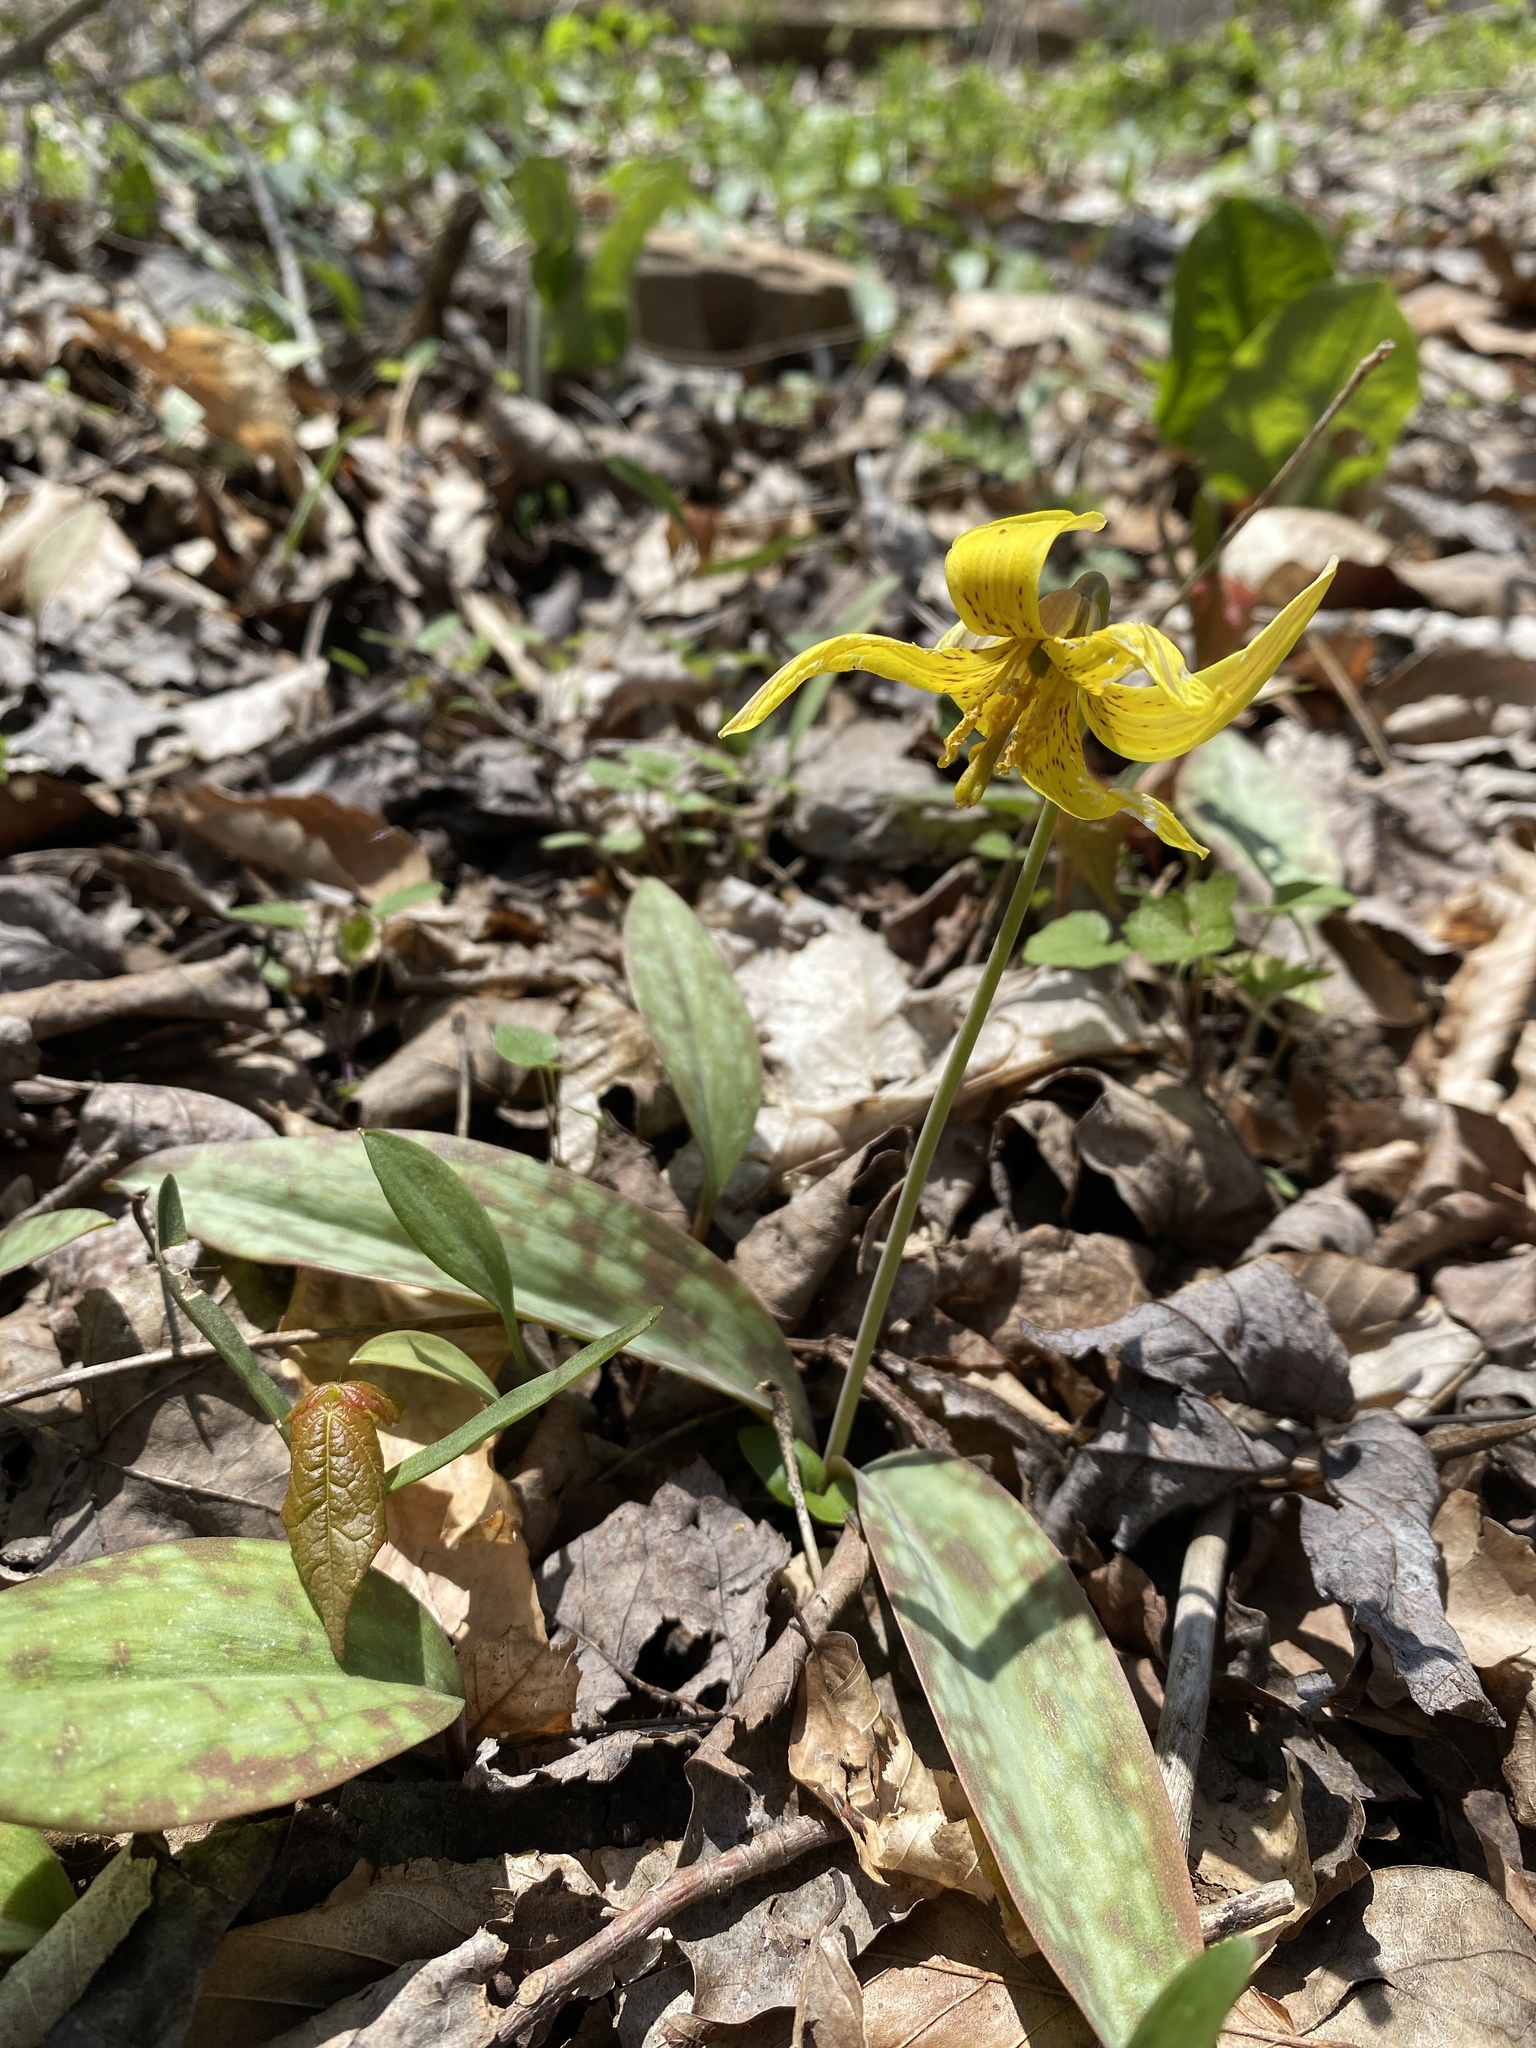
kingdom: Plantae
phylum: Tracheophyta
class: Liliopsida
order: Liliales
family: Liliaceae
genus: Erythronium
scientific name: Erythronium americanum
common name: Yellow adder's-tongue
